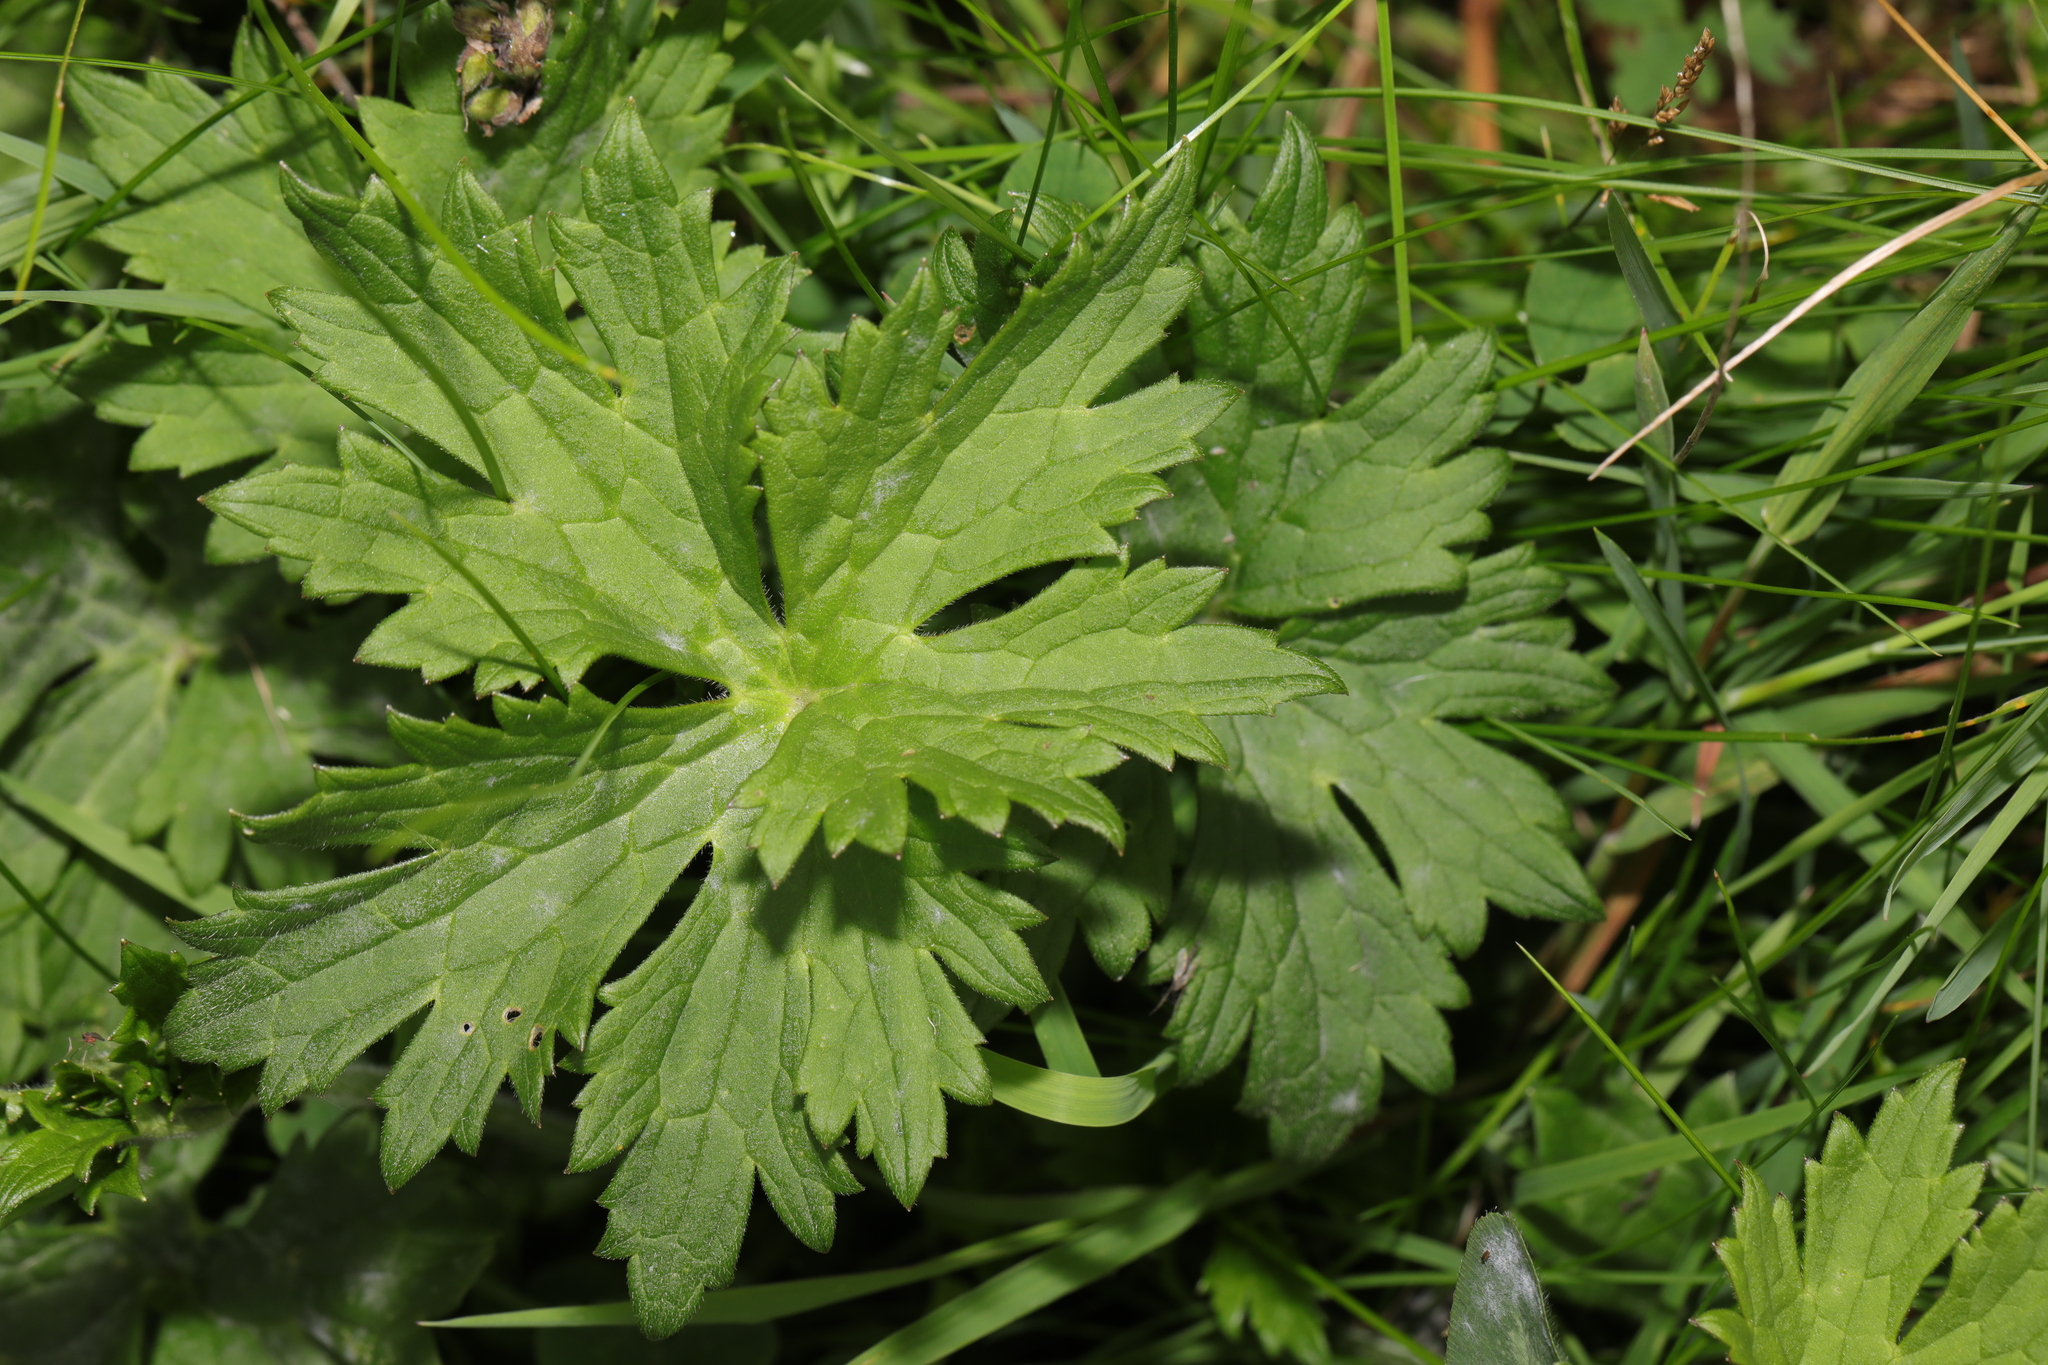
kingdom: Plantae
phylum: Tracheophyta
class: Magnoliopsida
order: Ranunculales
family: Ranunculaceae
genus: Ranunculus
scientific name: Ranunculus acris
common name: Meadow buttercup
